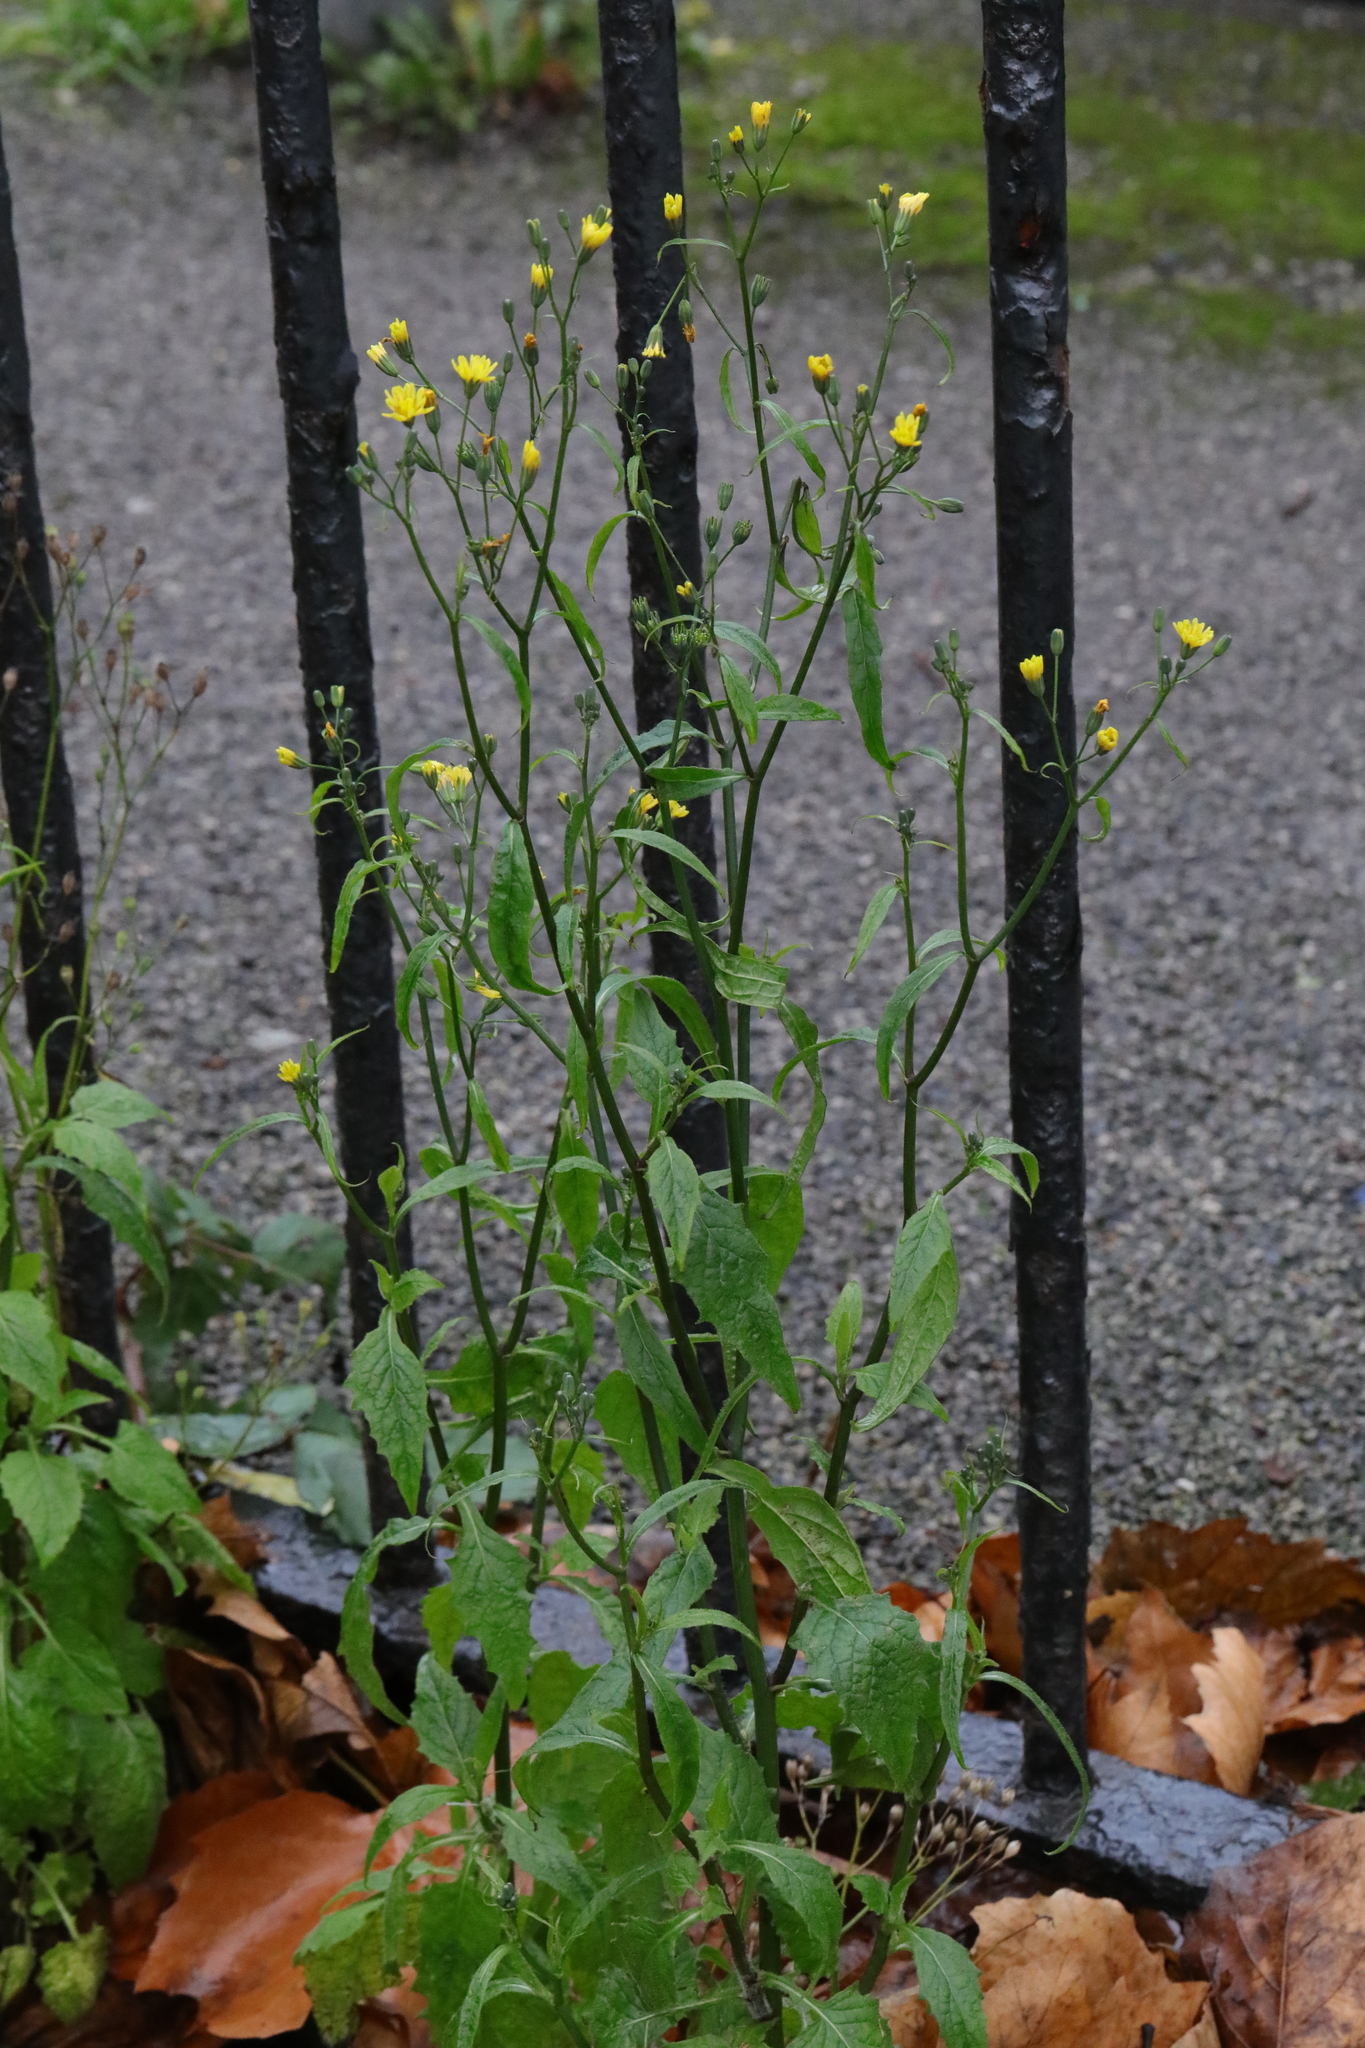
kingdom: Plantae
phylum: Tracheophyta
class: Magnoliopsida
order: Asterales
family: Asteraceae
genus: Lapsana
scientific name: Lapsana communis
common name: Nipplewort
